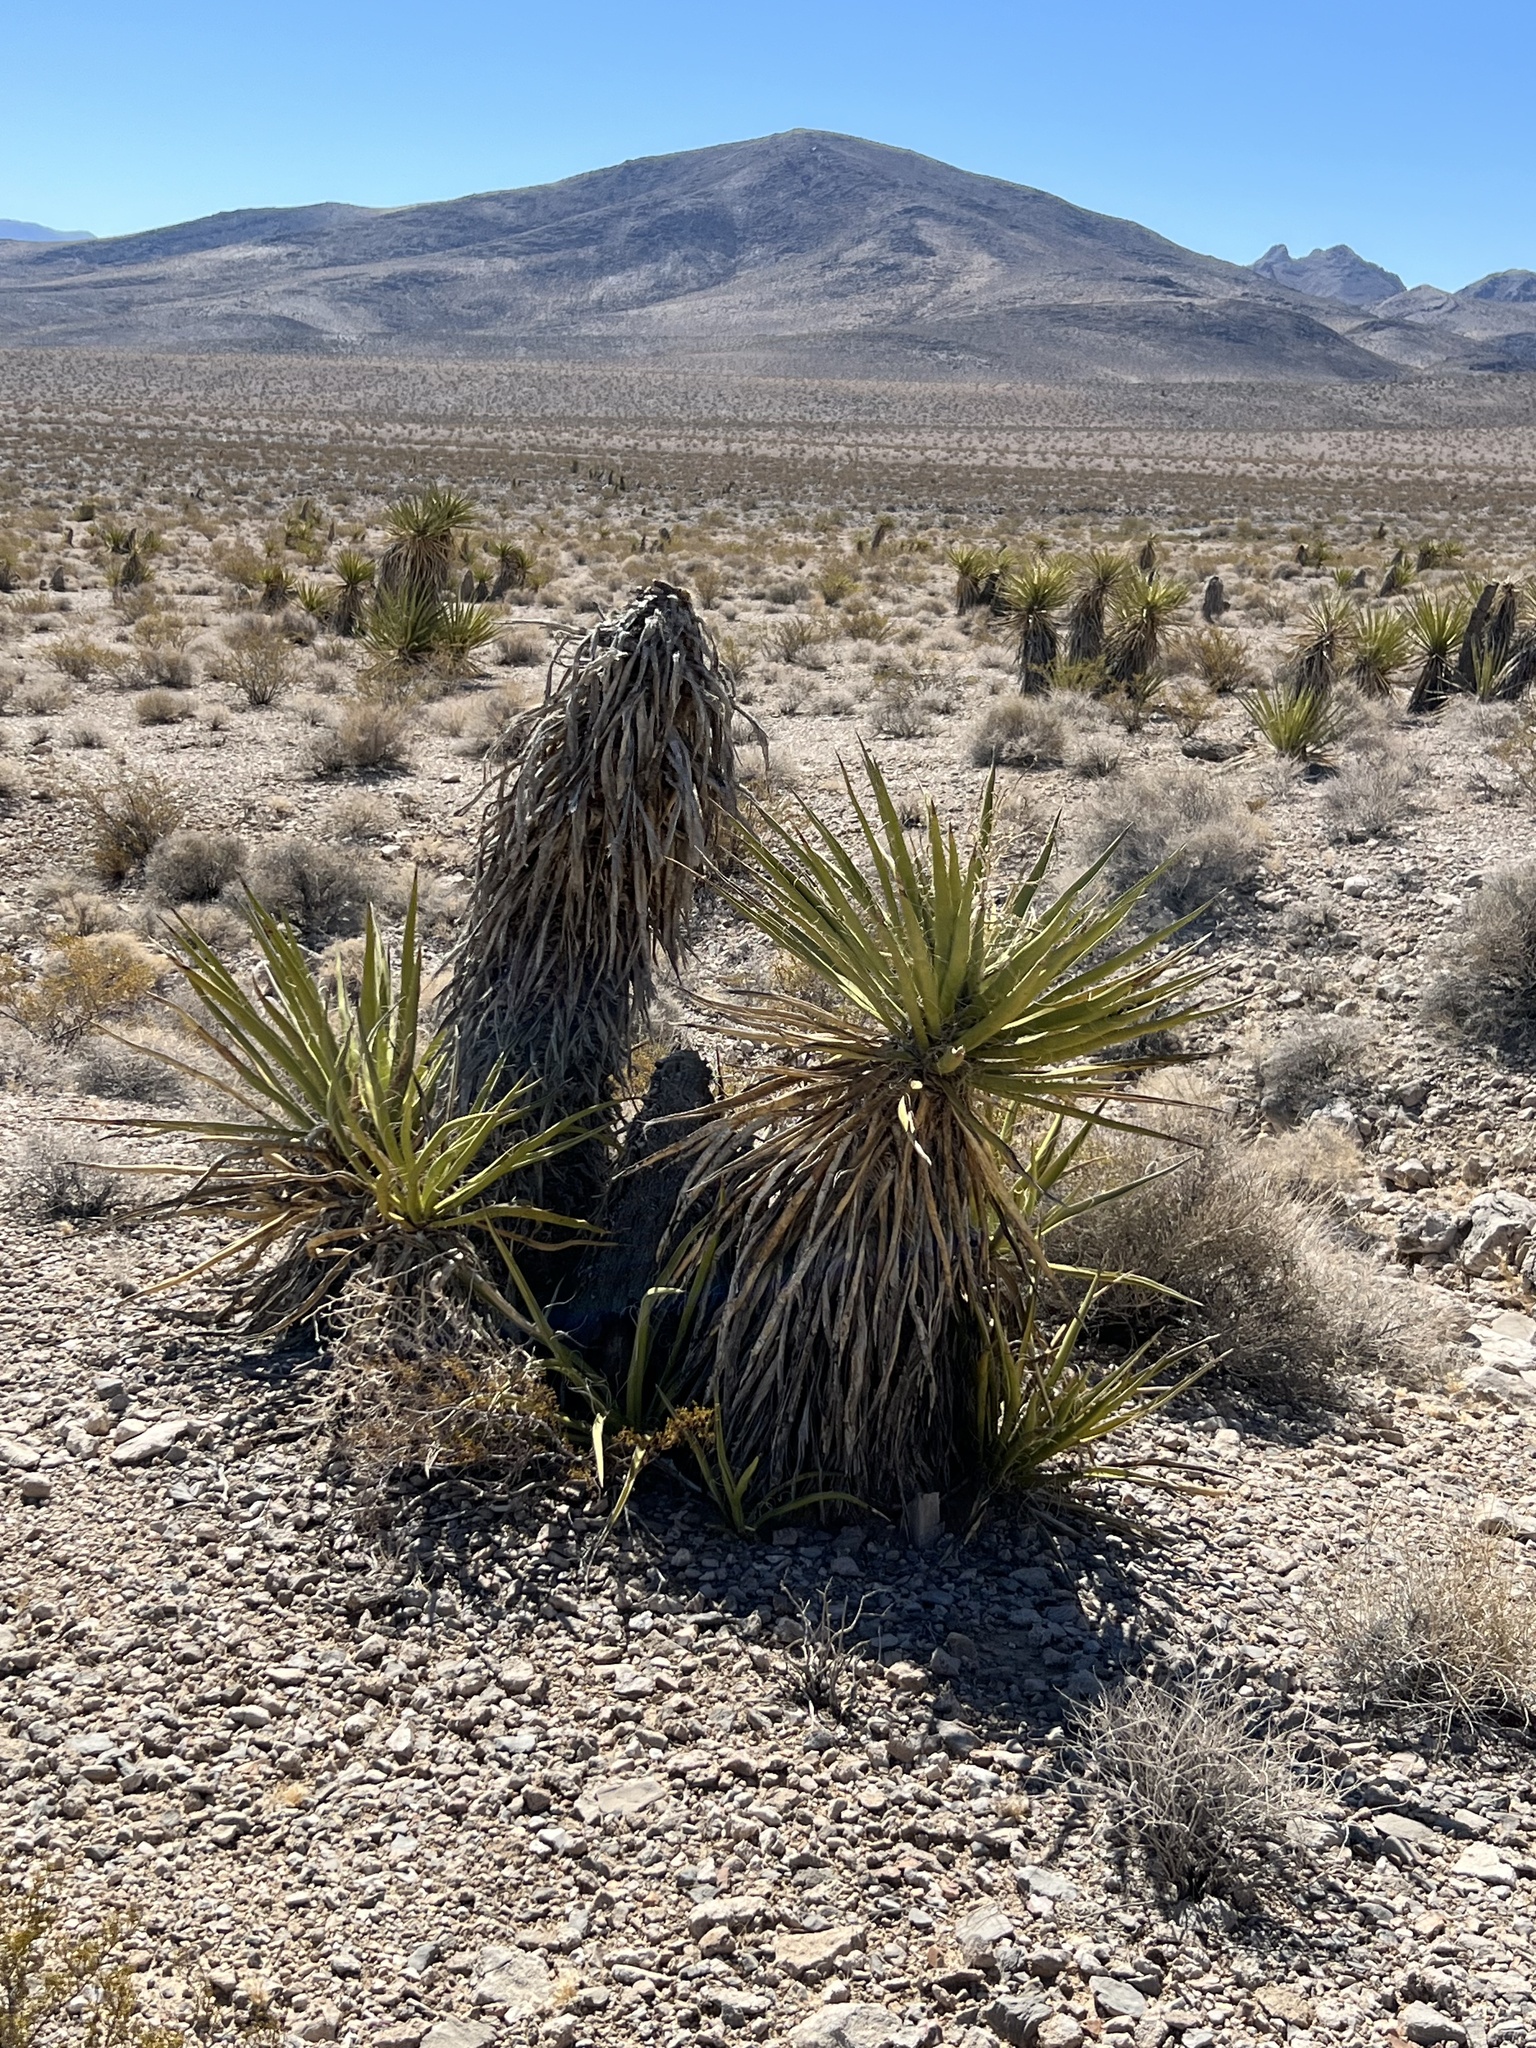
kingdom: Plantae
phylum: Tracheophyta
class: Liliopsida
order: Asparagales
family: Asparagaceae
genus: Yucca
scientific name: Yucca schidigera
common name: Mojave yucca
